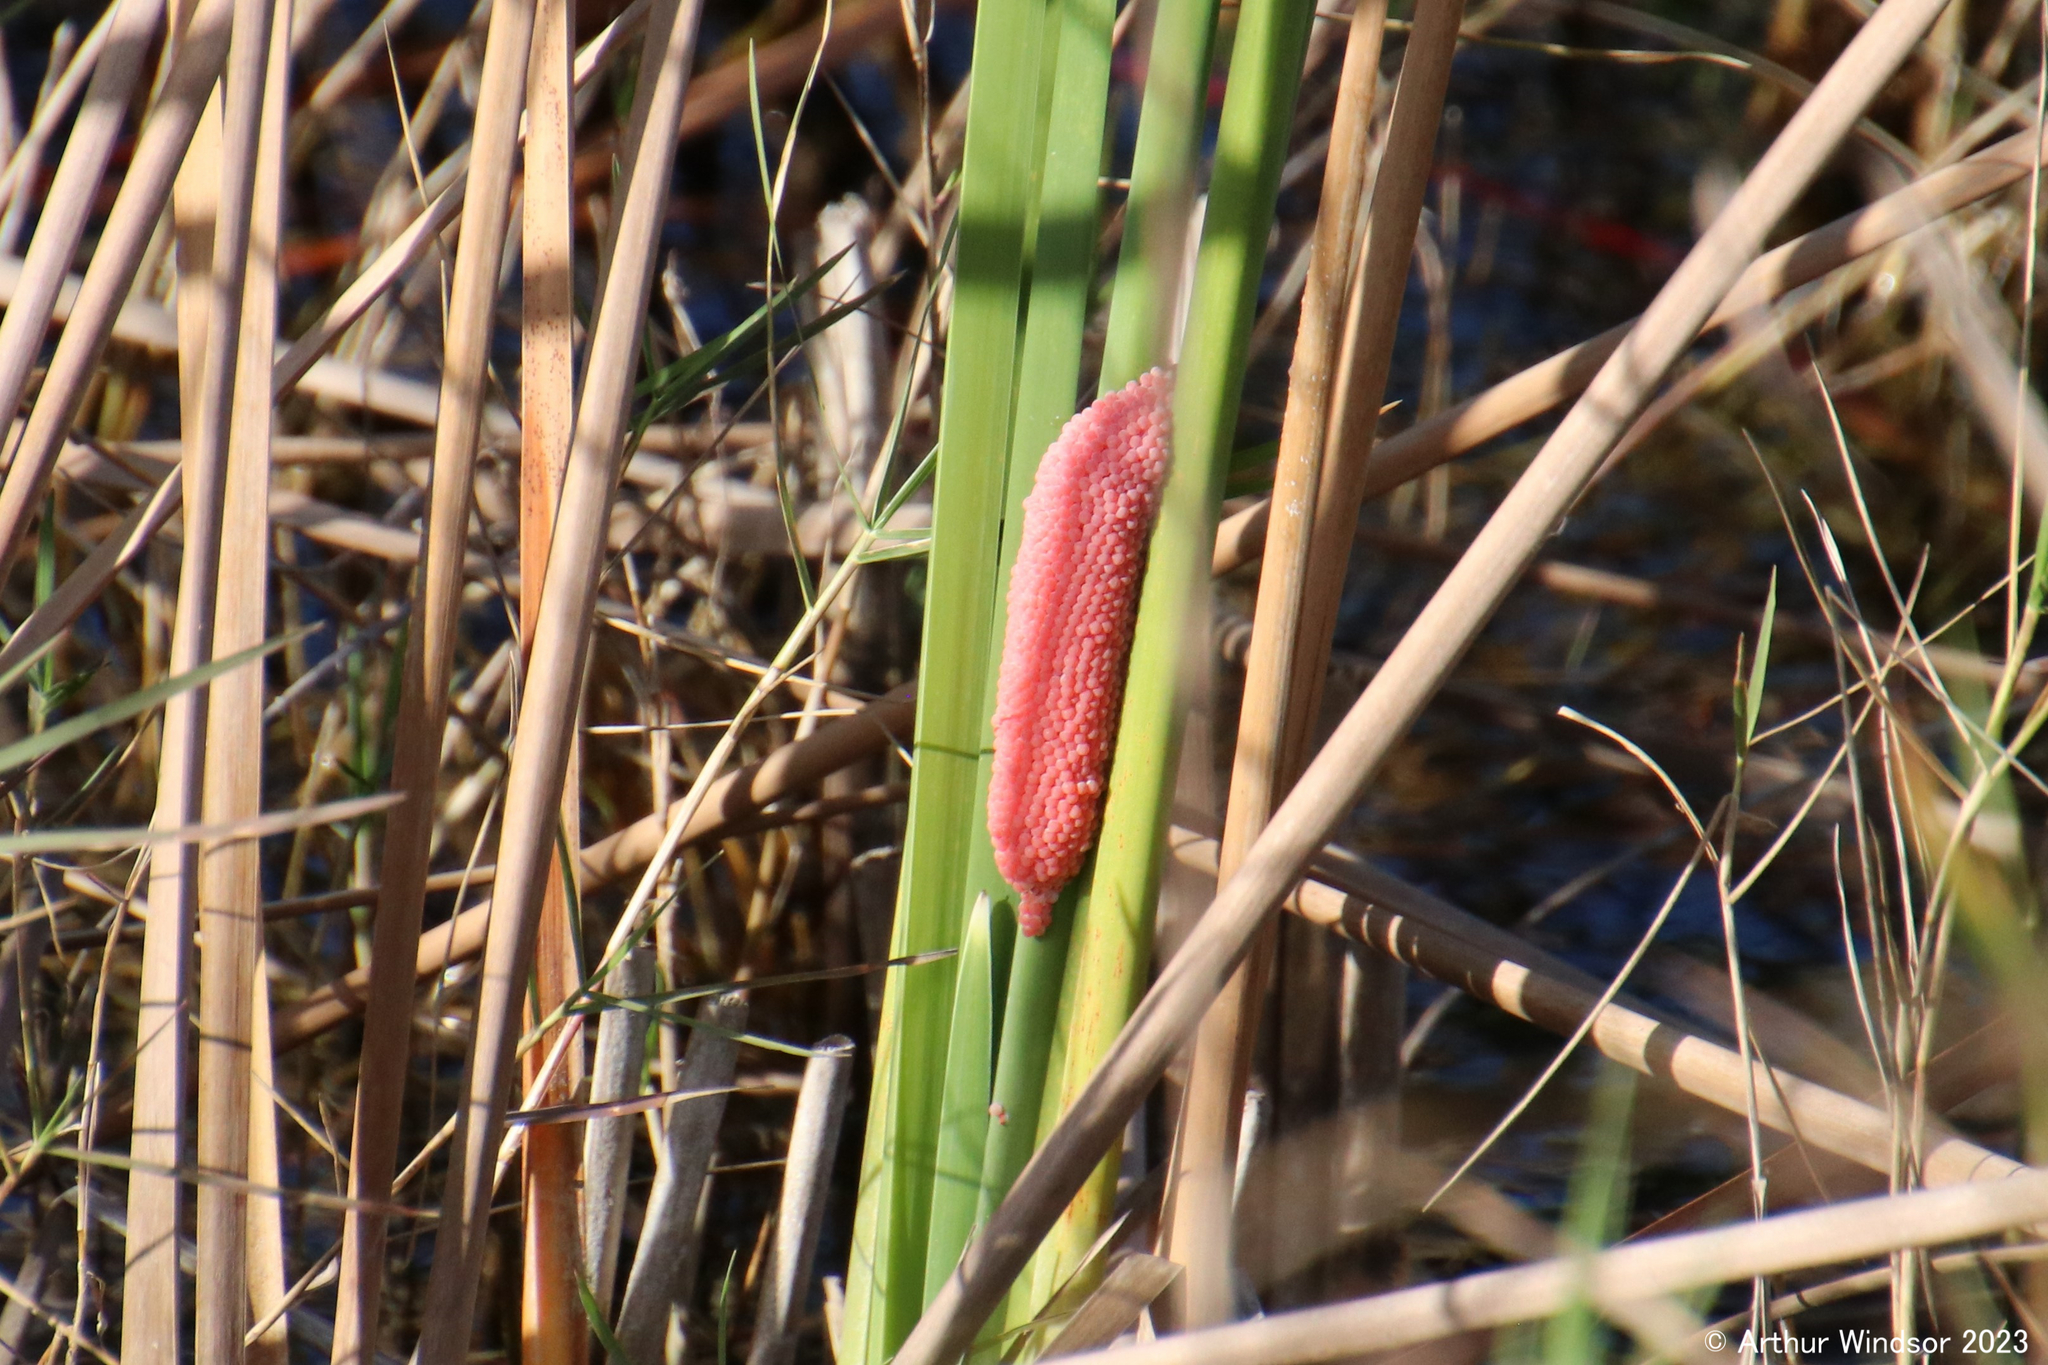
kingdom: Animalia
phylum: Mollusca
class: Gastropoda
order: Architaenioglossa
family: Ampullariidae
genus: Pomacea
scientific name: Pomacea maculata
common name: Giant applesnail
